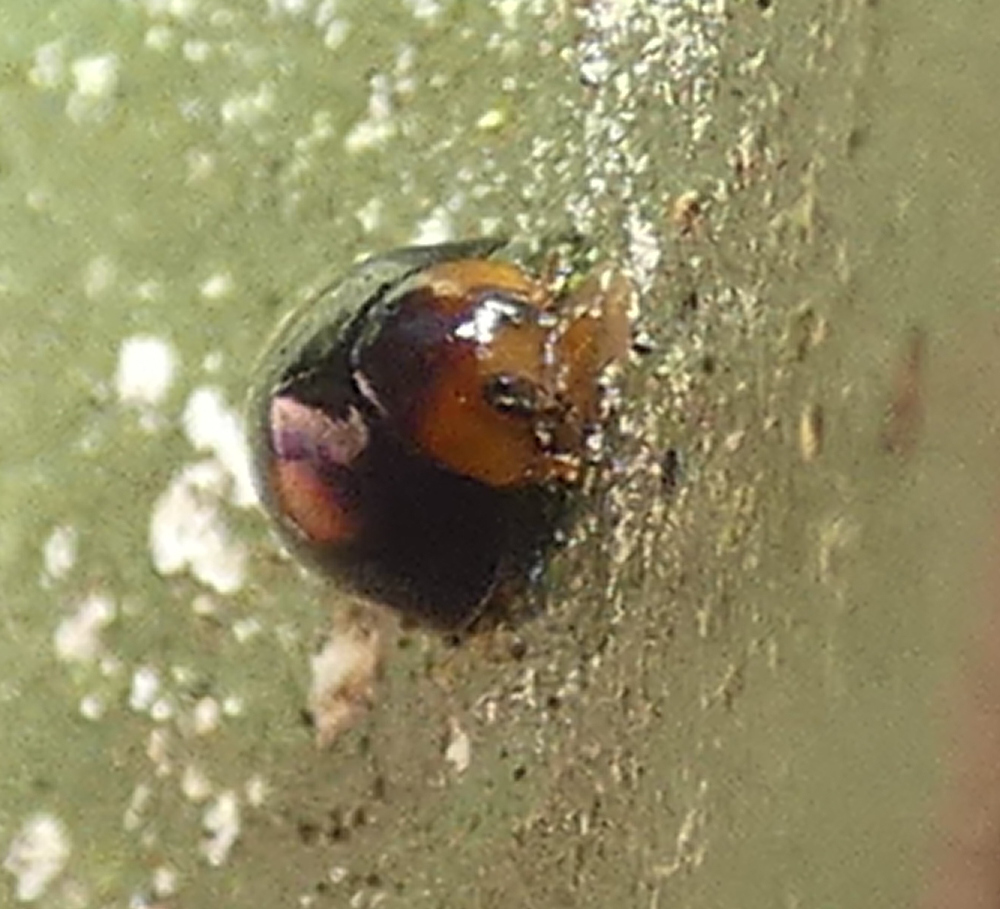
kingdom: Animalia
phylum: Arthropoda
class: Insecta
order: Coleoptera
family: Coccinellidae
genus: Cryptognatha
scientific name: Cryptognatha
